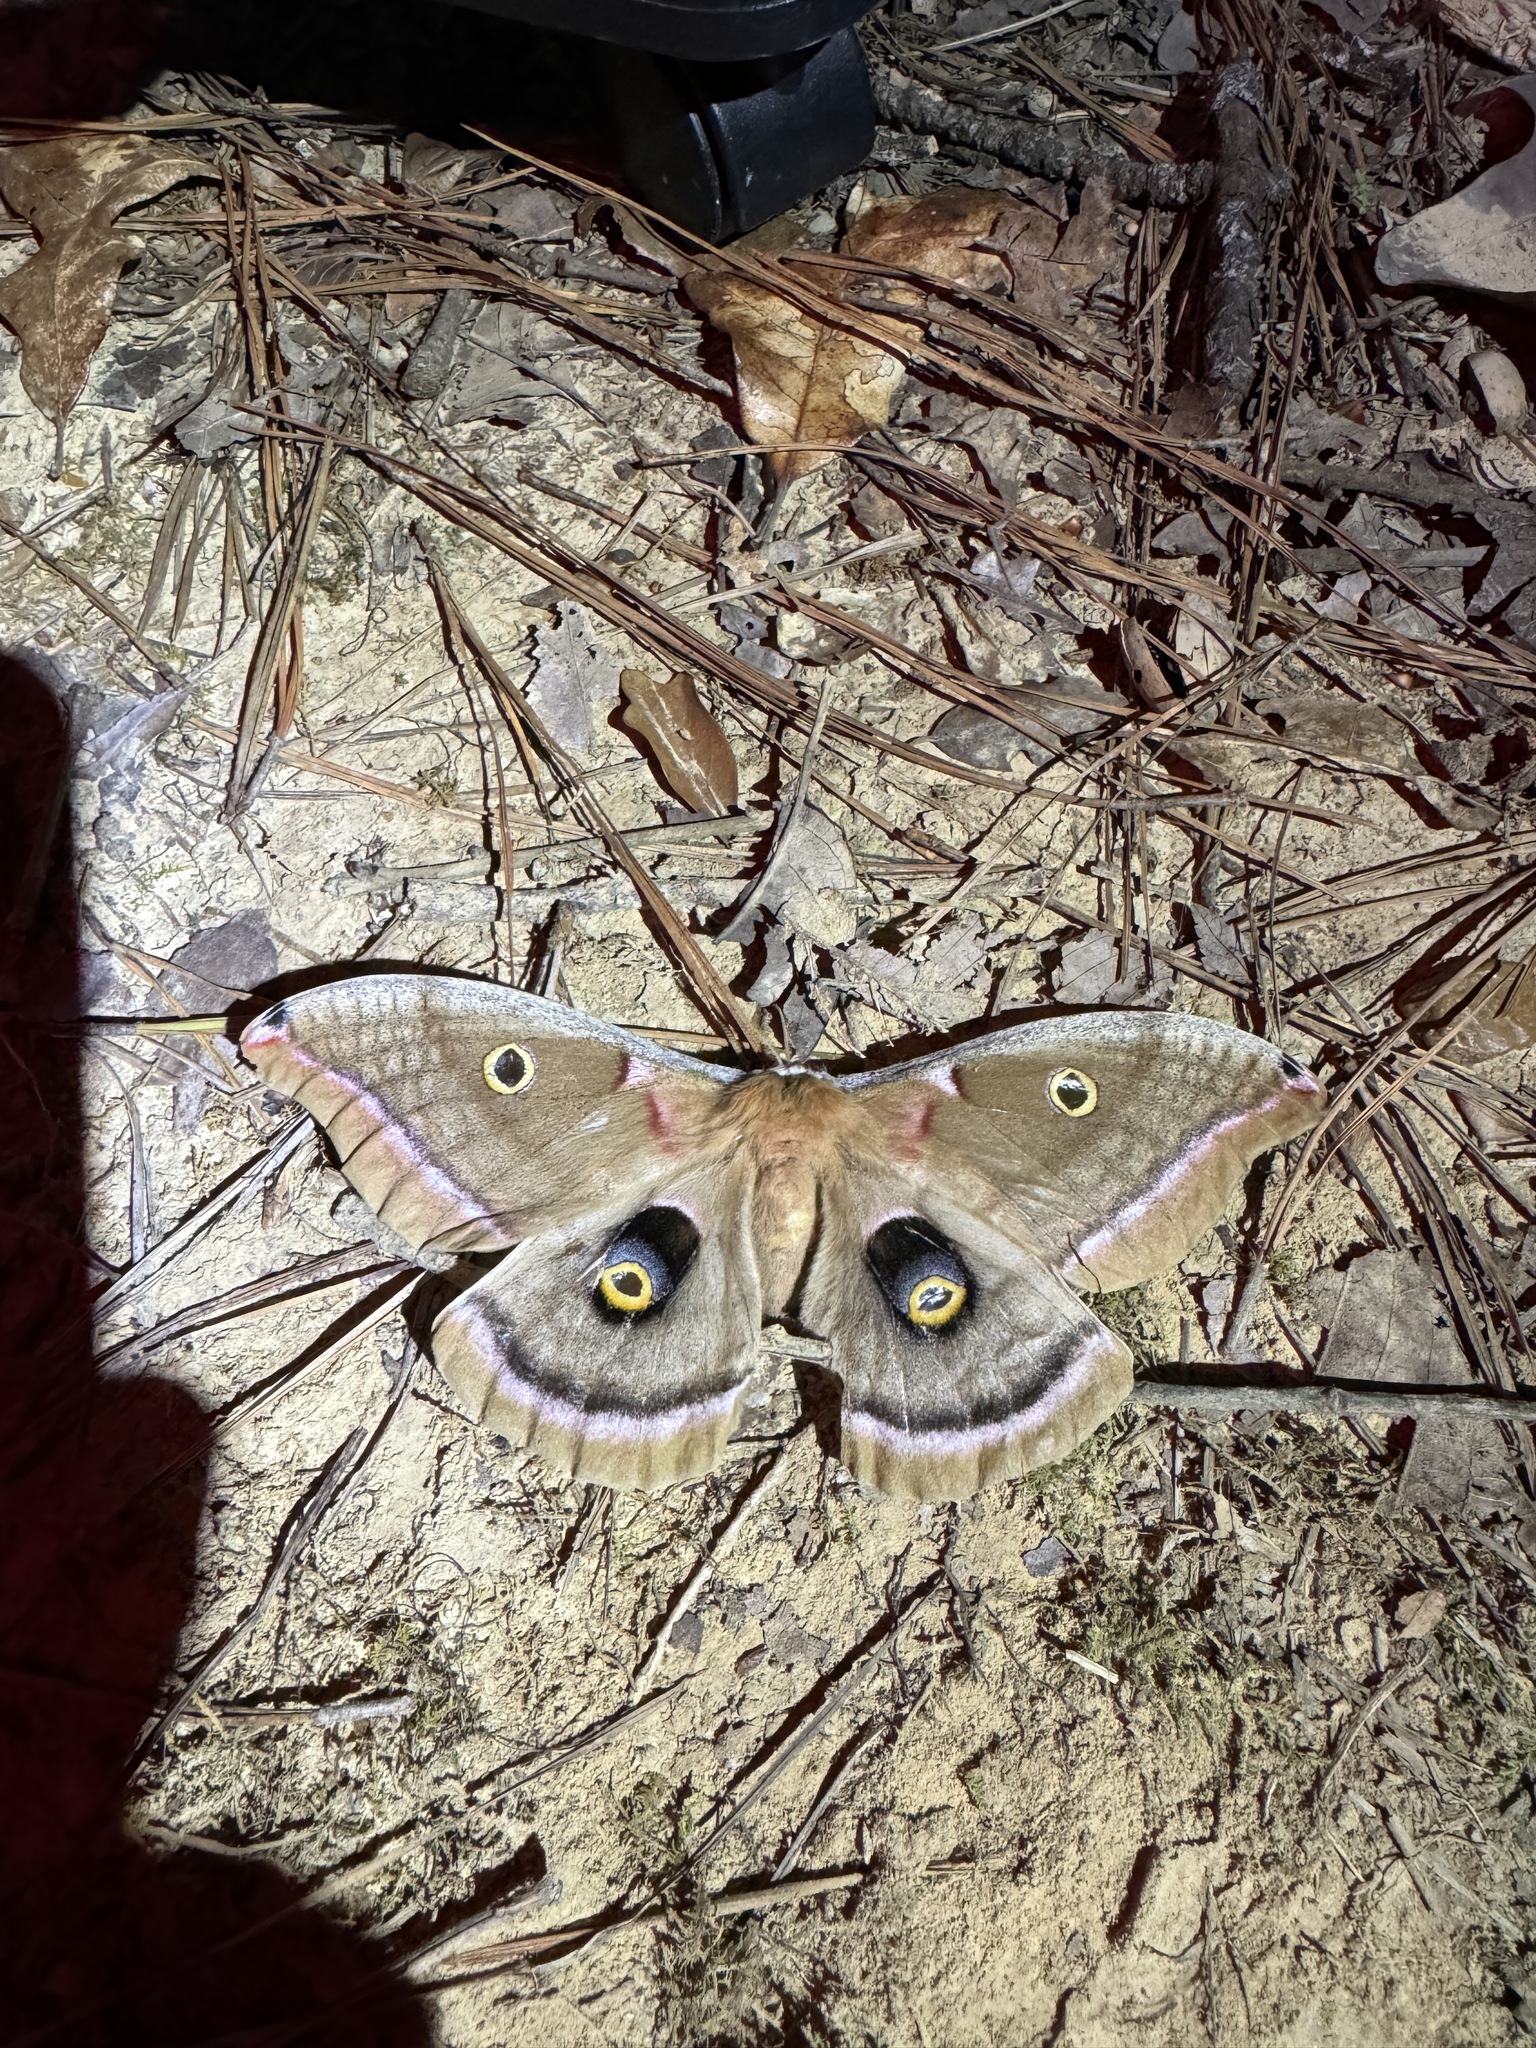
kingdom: Animalia
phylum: Arthropoda
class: Insecta
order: Lepidoptera
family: Saturniidae
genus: Antheraea
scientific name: Antheraea polyphemus
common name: Polyphemus moth
